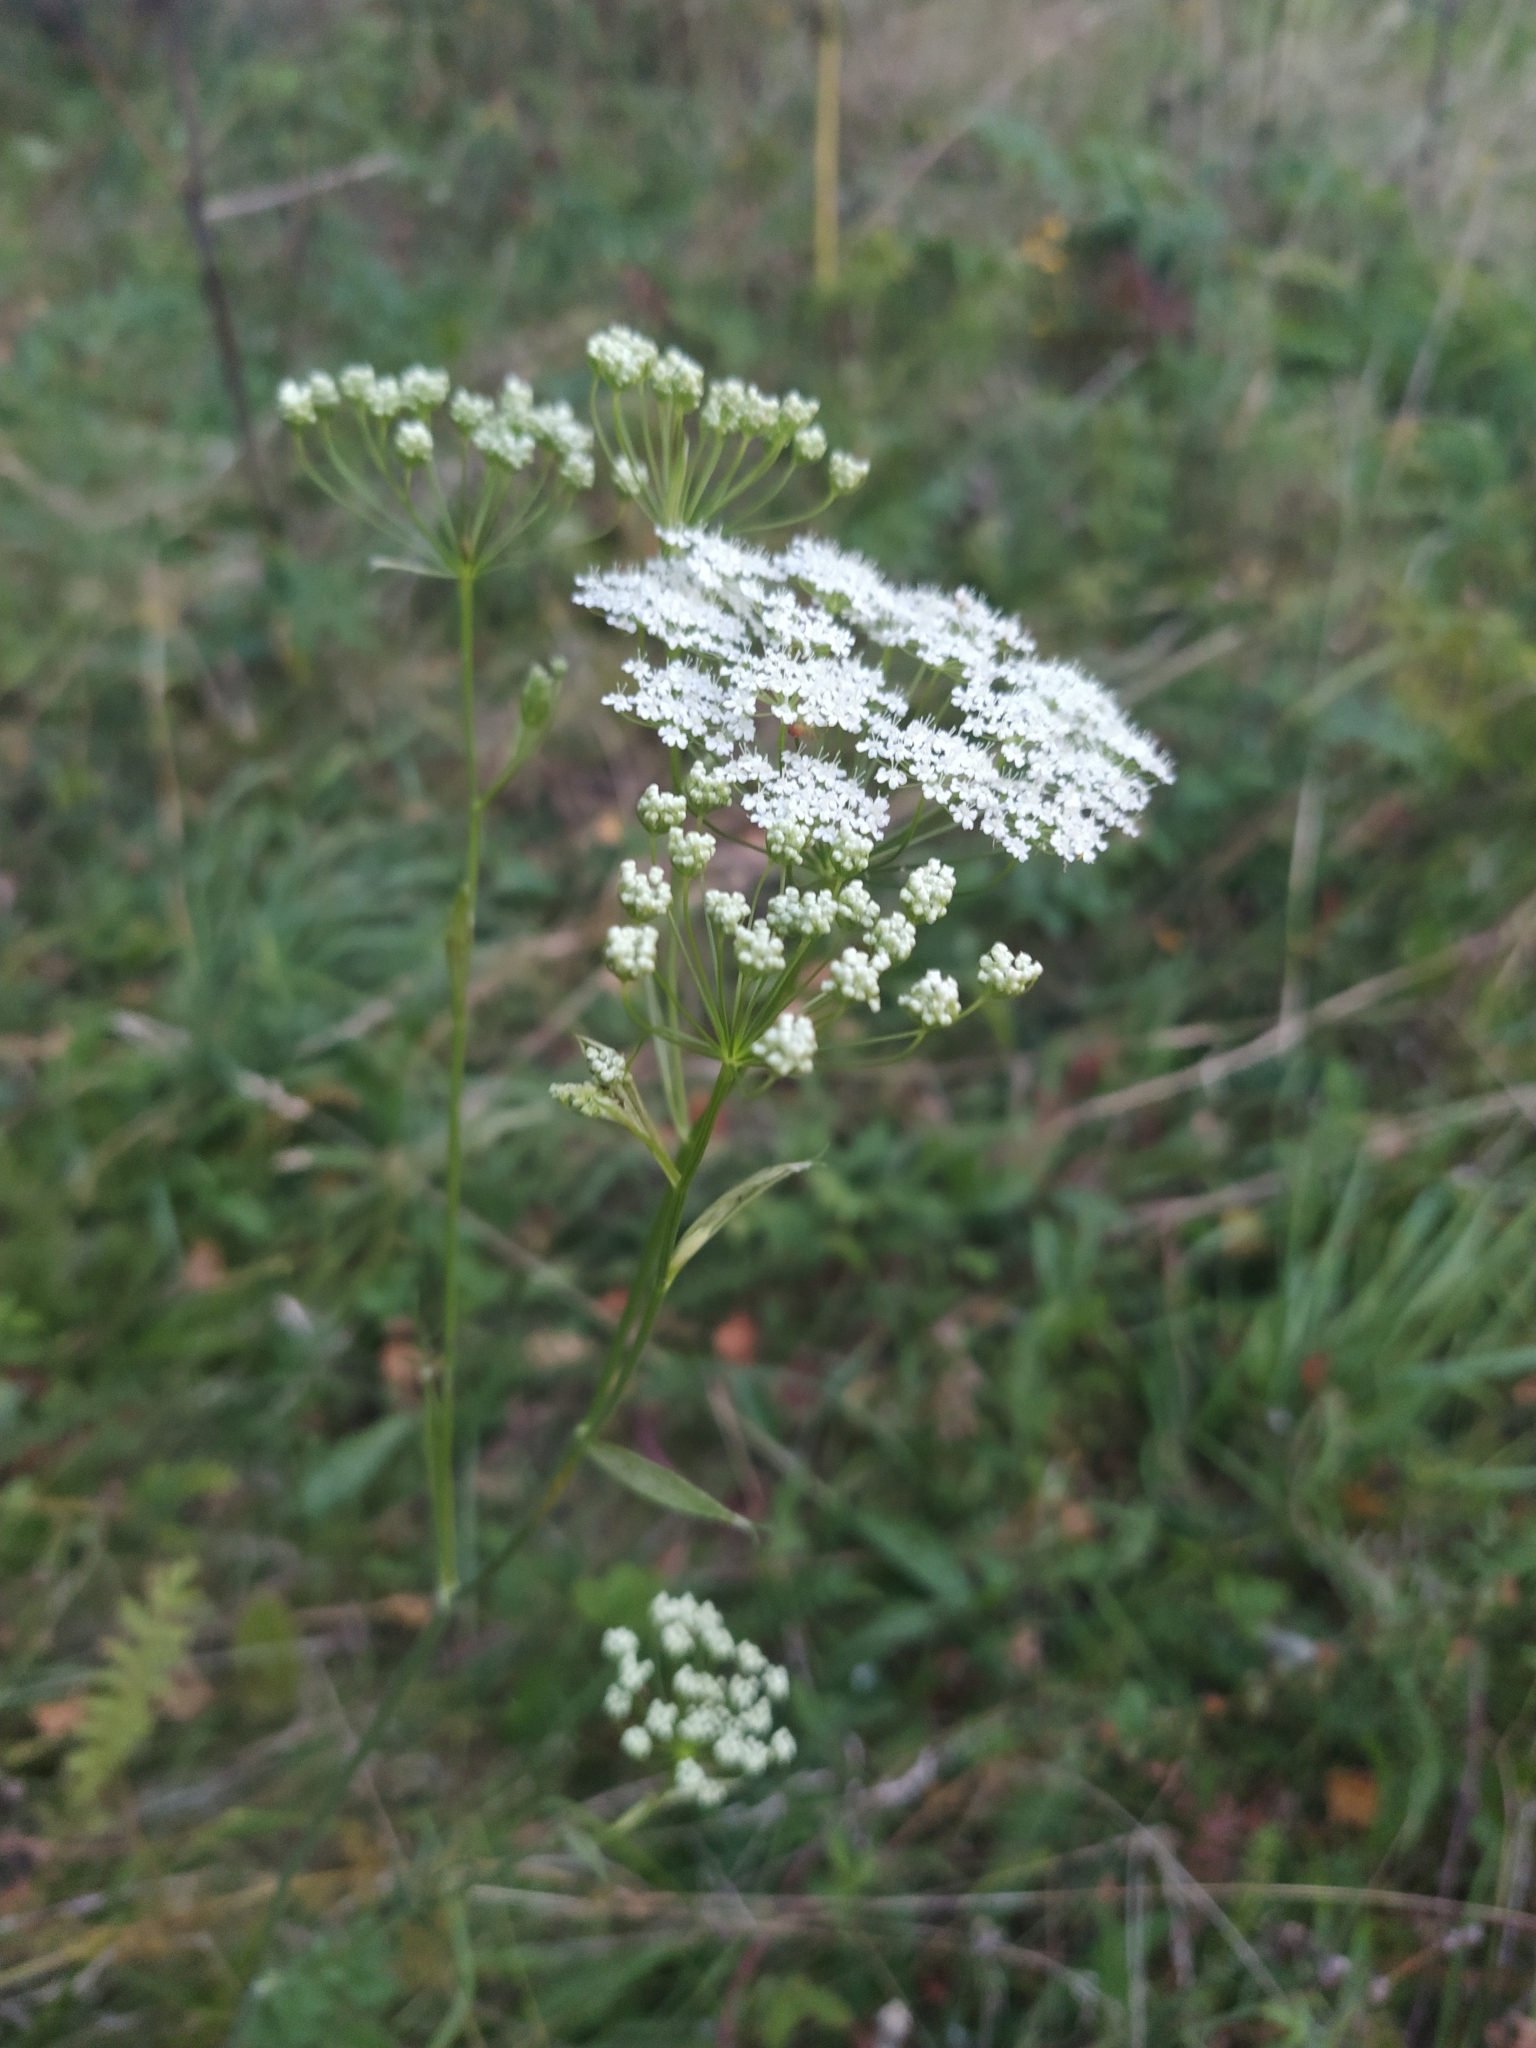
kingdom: Plantae
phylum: Tracheophyta
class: Magnoliopsida
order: Apiales
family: Apiaceae
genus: Pimpinella
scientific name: Pimpinella saxifraga
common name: Burnet-saxifrage
